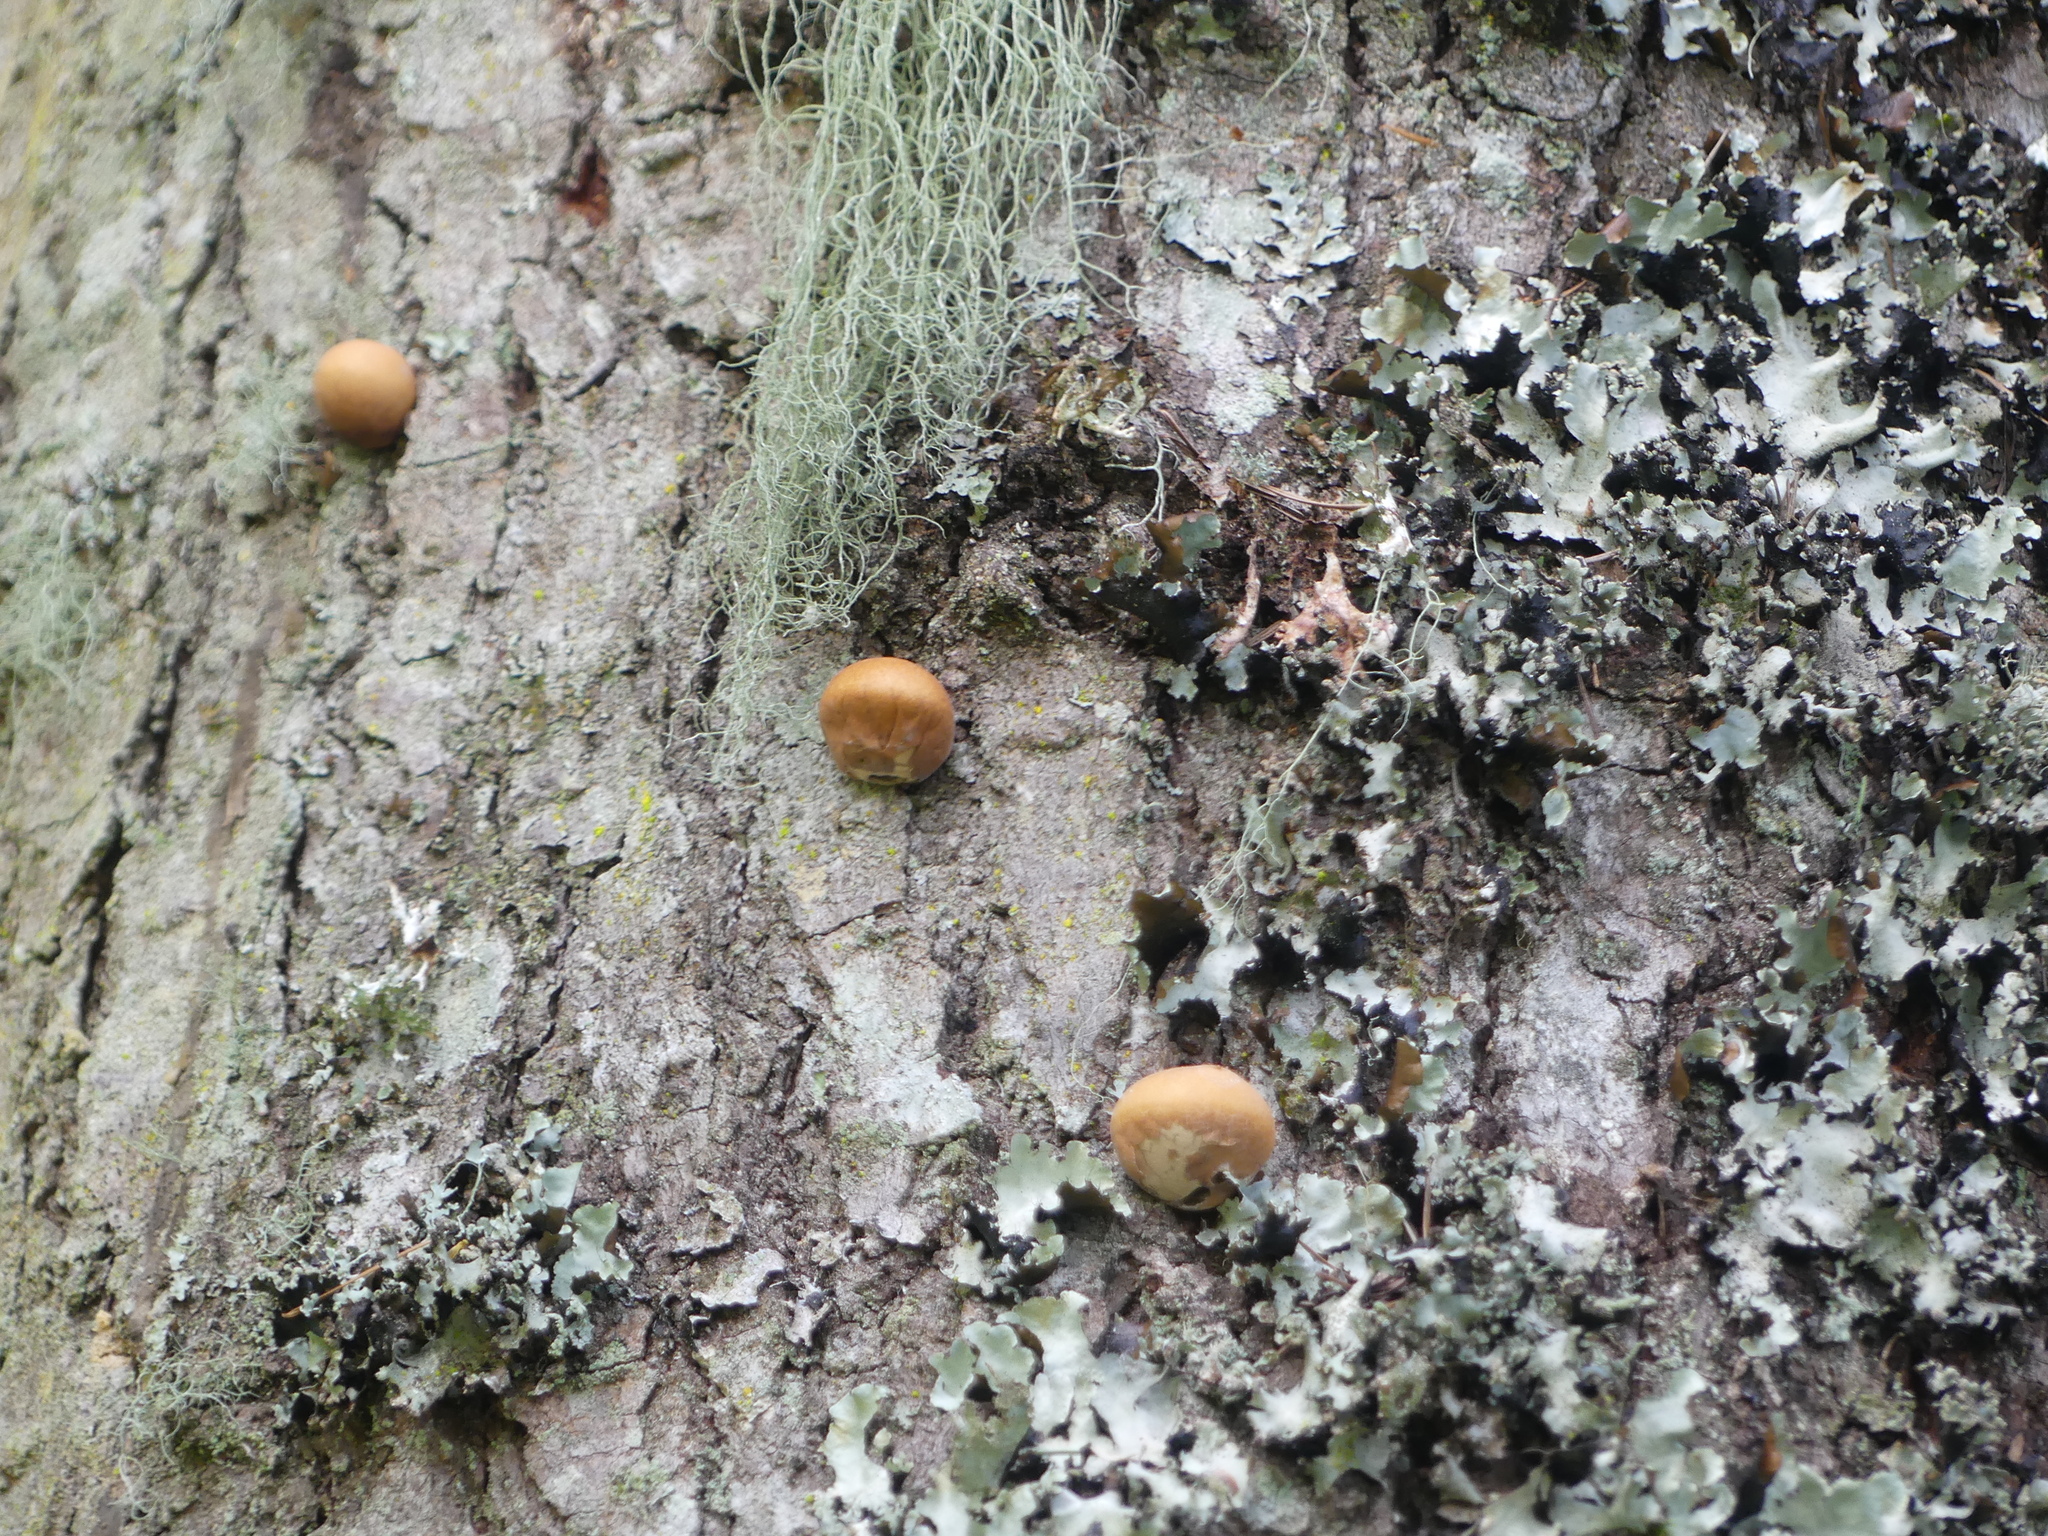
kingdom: Fungi
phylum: Basidiomycota
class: Agaricomycetes
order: Polyporales
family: Polyporaceae
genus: Cryptoporus
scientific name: Cryptoporus volvatus
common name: Veiled polypore
